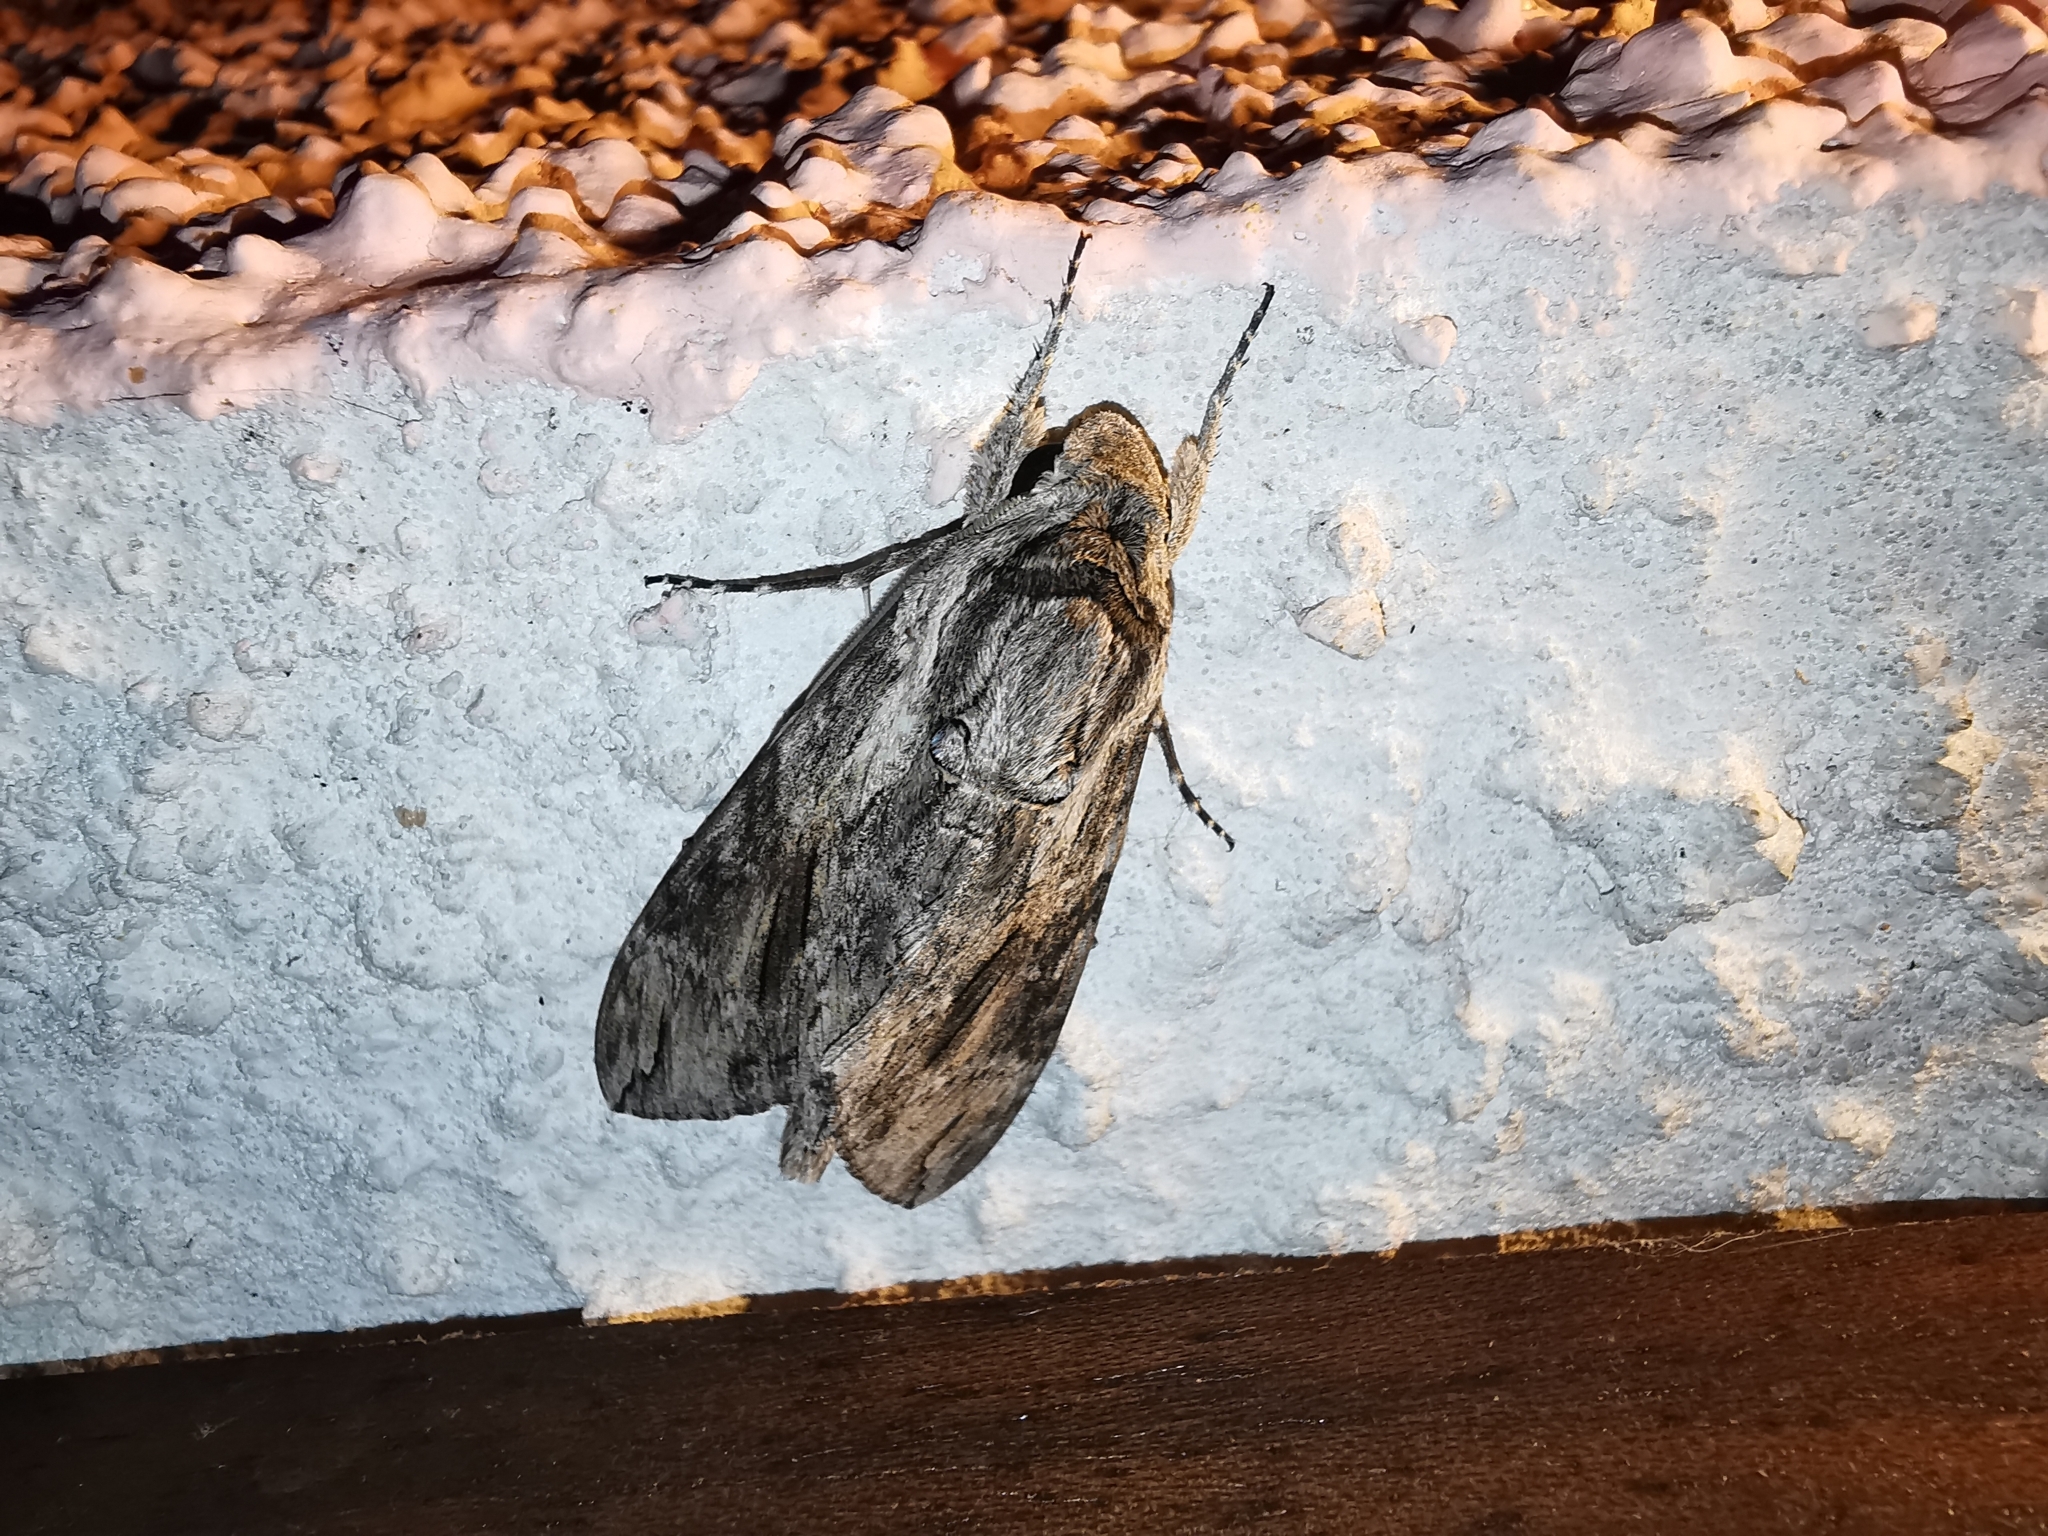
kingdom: Animalia
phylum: Arthropoda
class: Insecta
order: Lepidoptera
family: Sphingidae
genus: Agrius
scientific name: Agrius convolvuli
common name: Convolvulus hawkmoth
